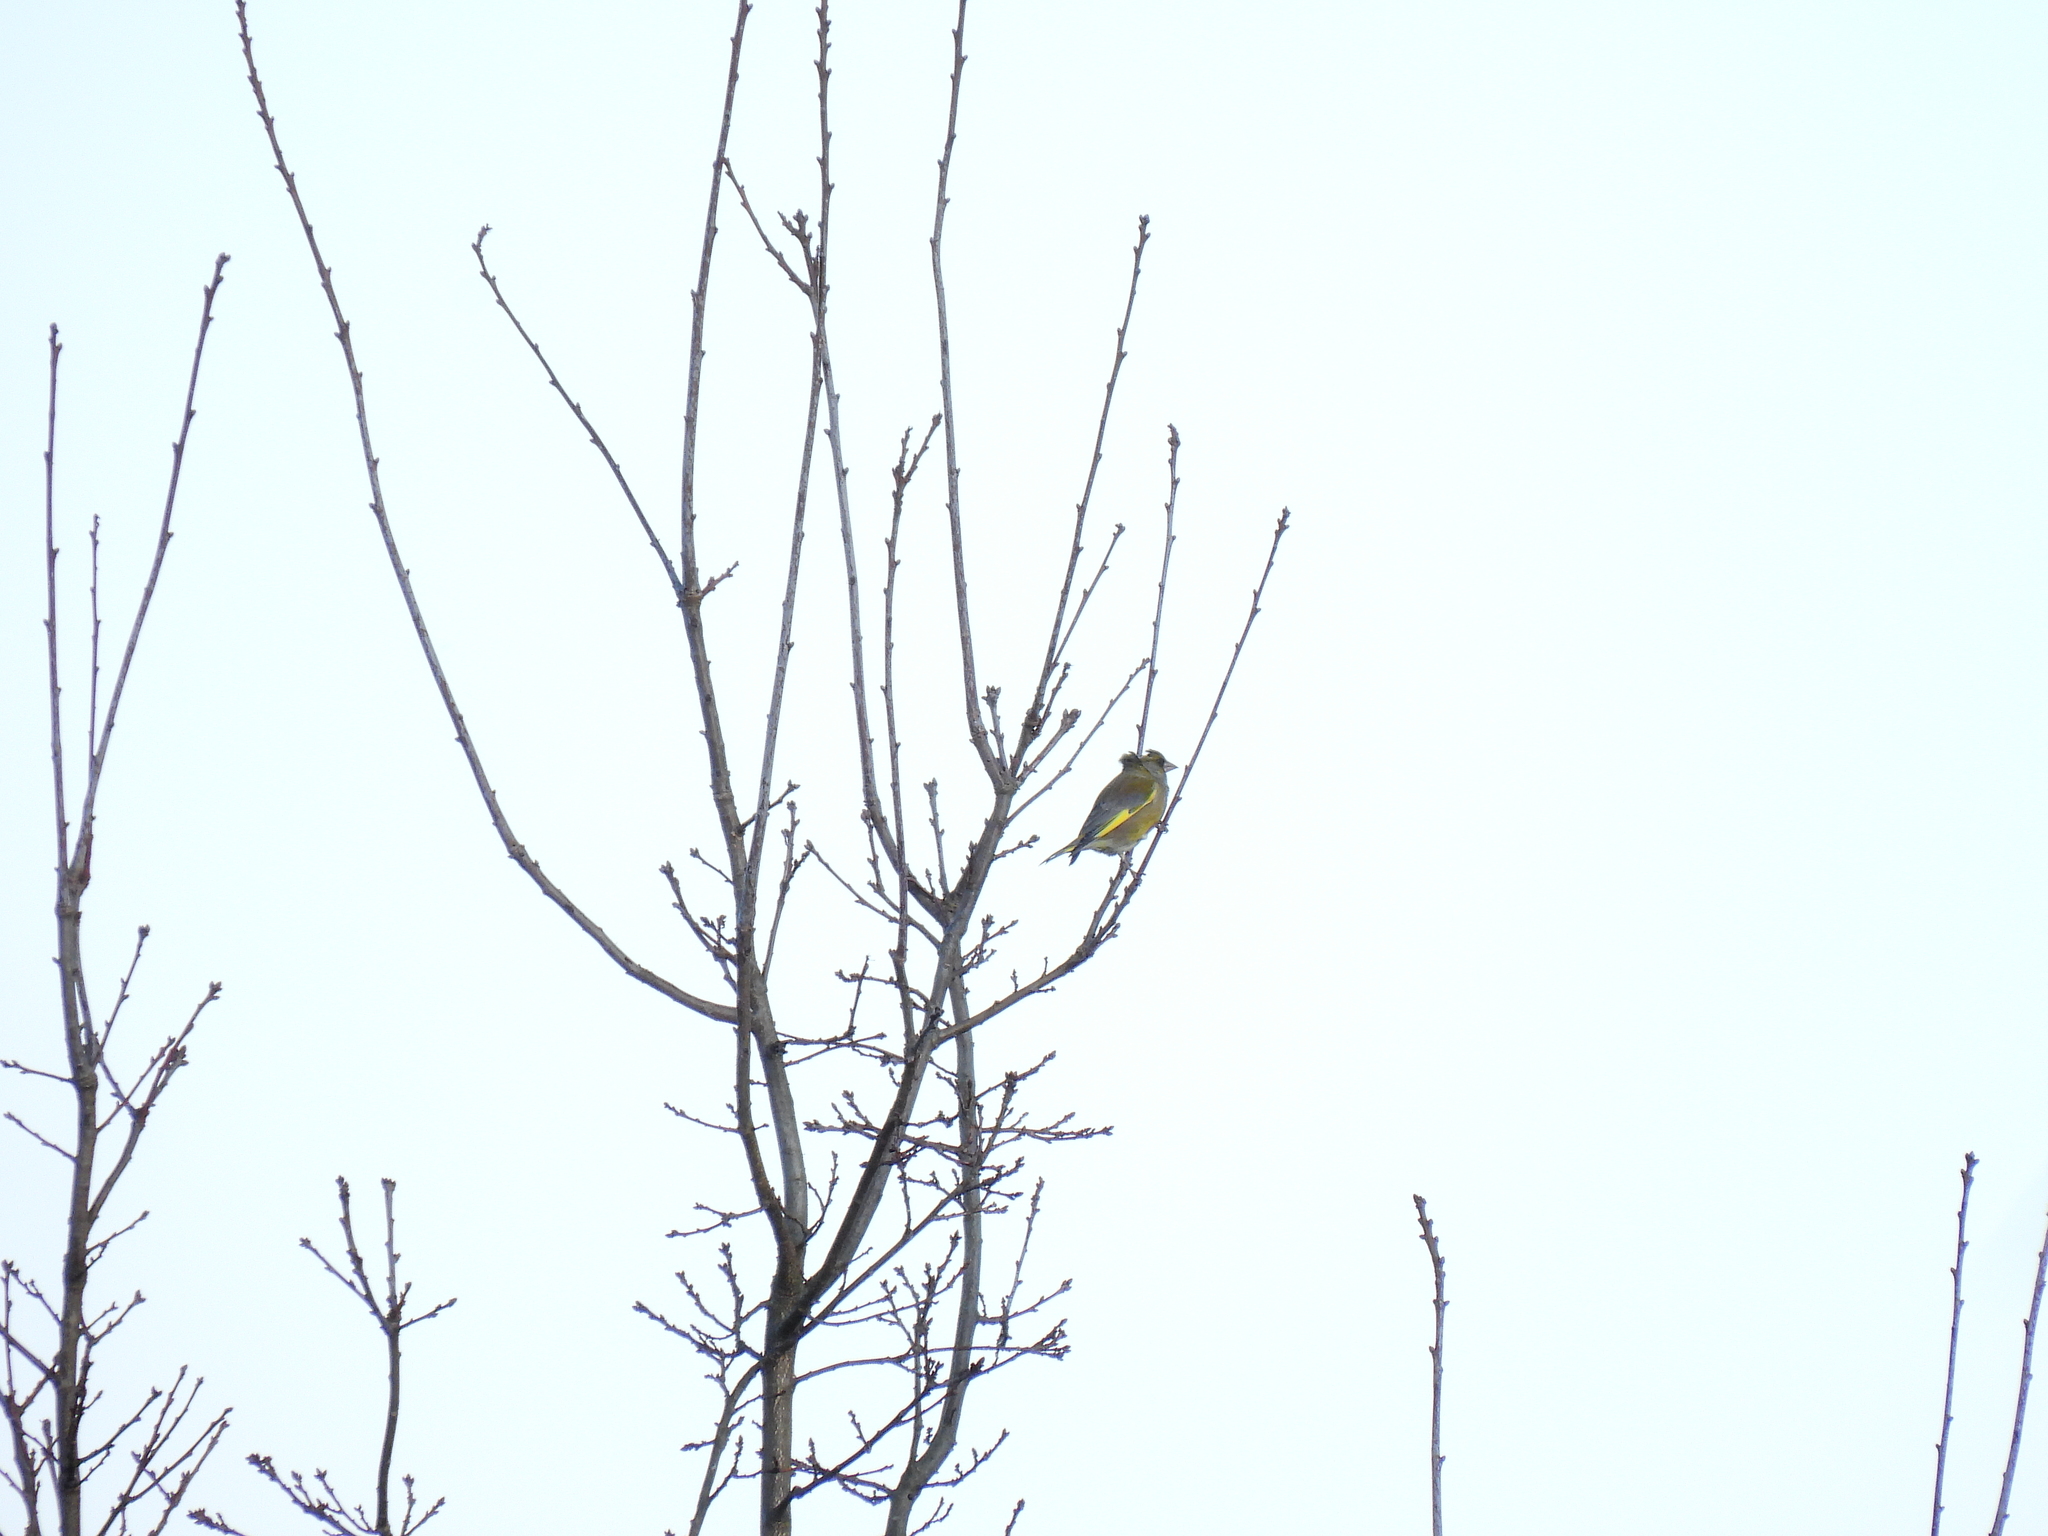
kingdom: Plantae
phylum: Tracheophyta
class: Liliopsida
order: Poales
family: Poaceae
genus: Chloris
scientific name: Chloris chloris
